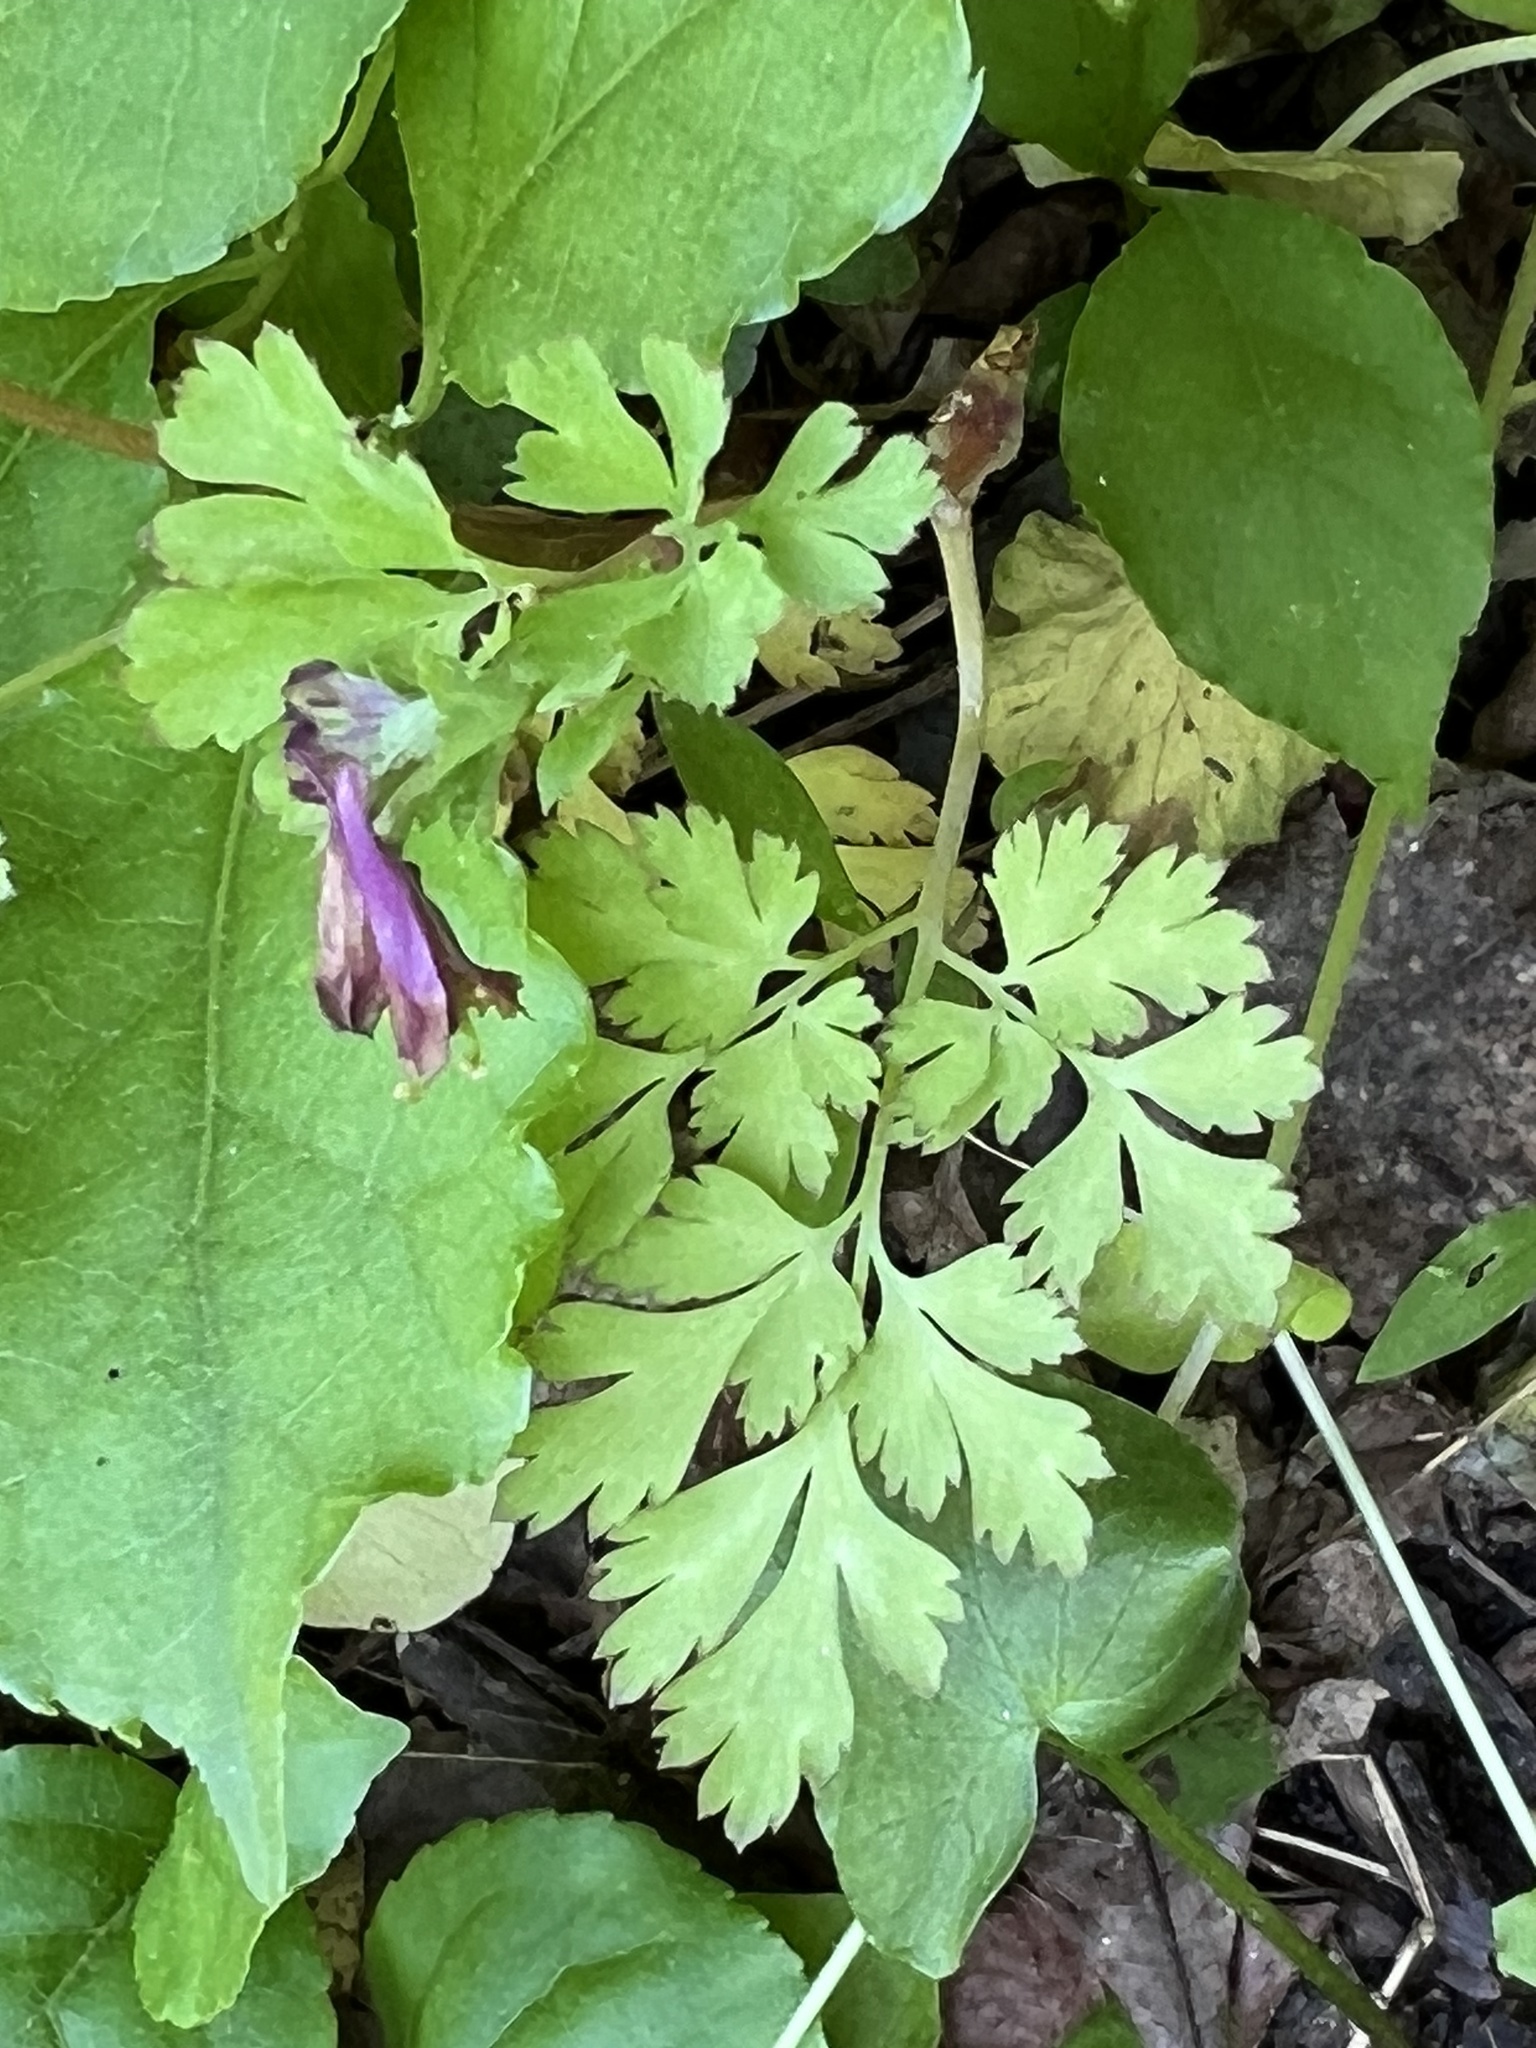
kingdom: Plantae
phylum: Tracheophyta
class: Magnoliopsida
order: Ranunculales
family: Papaveraceae
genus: Corydalis
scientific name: Corydalis incisa
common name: Incised fumewort
